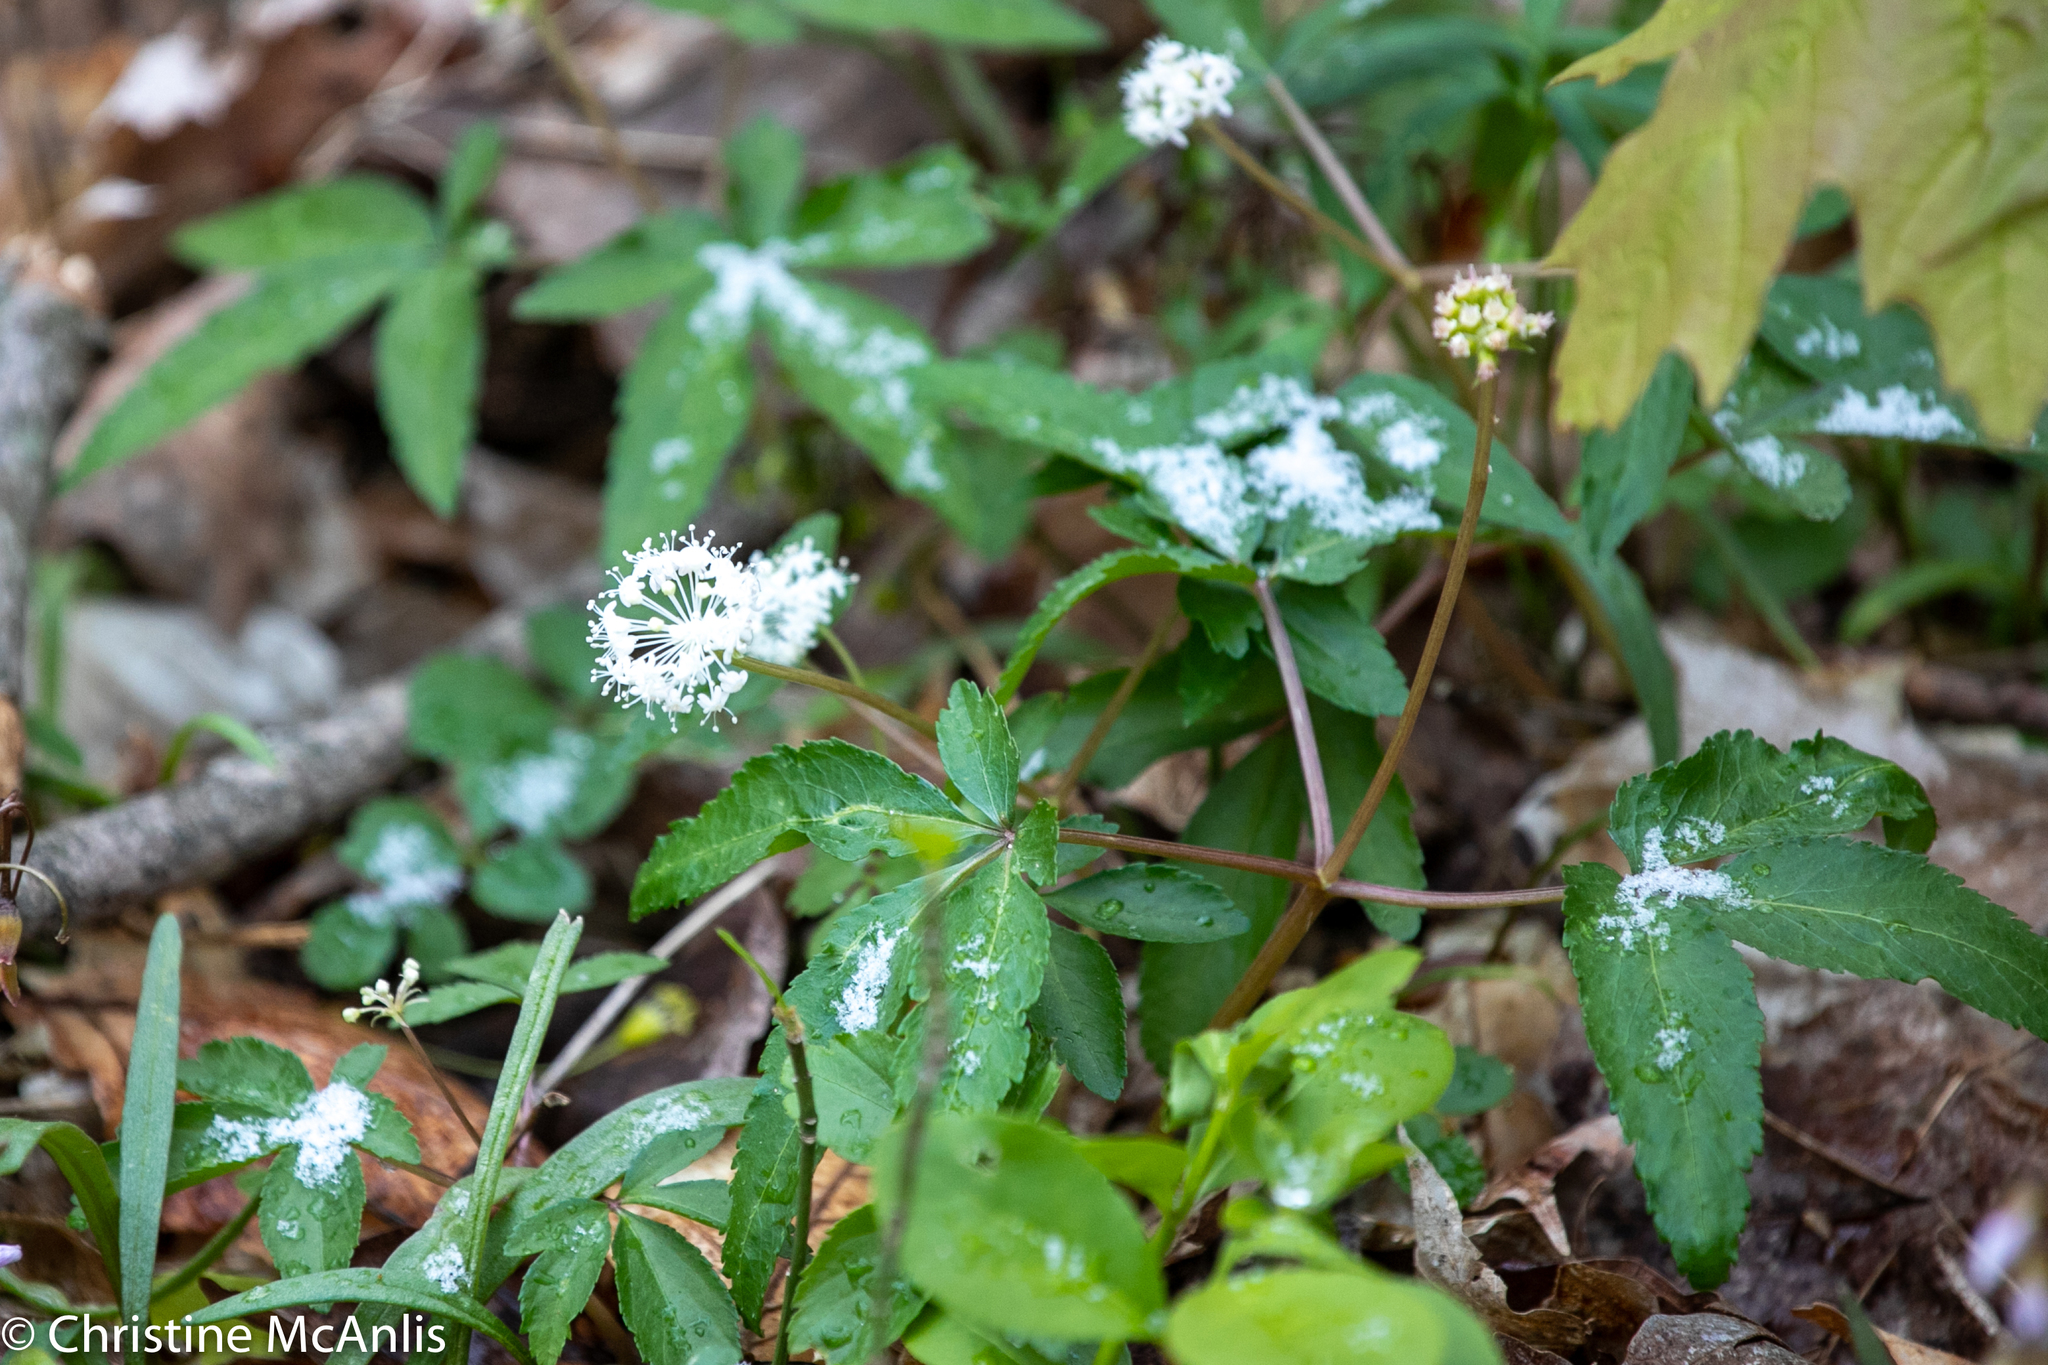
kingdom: Plantae
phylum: Tracheophyta
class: Magnoliopsida
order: Apiales
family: Araliaceae
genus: Panax
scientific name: Panax trifolius
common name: Dwarf ginseng
